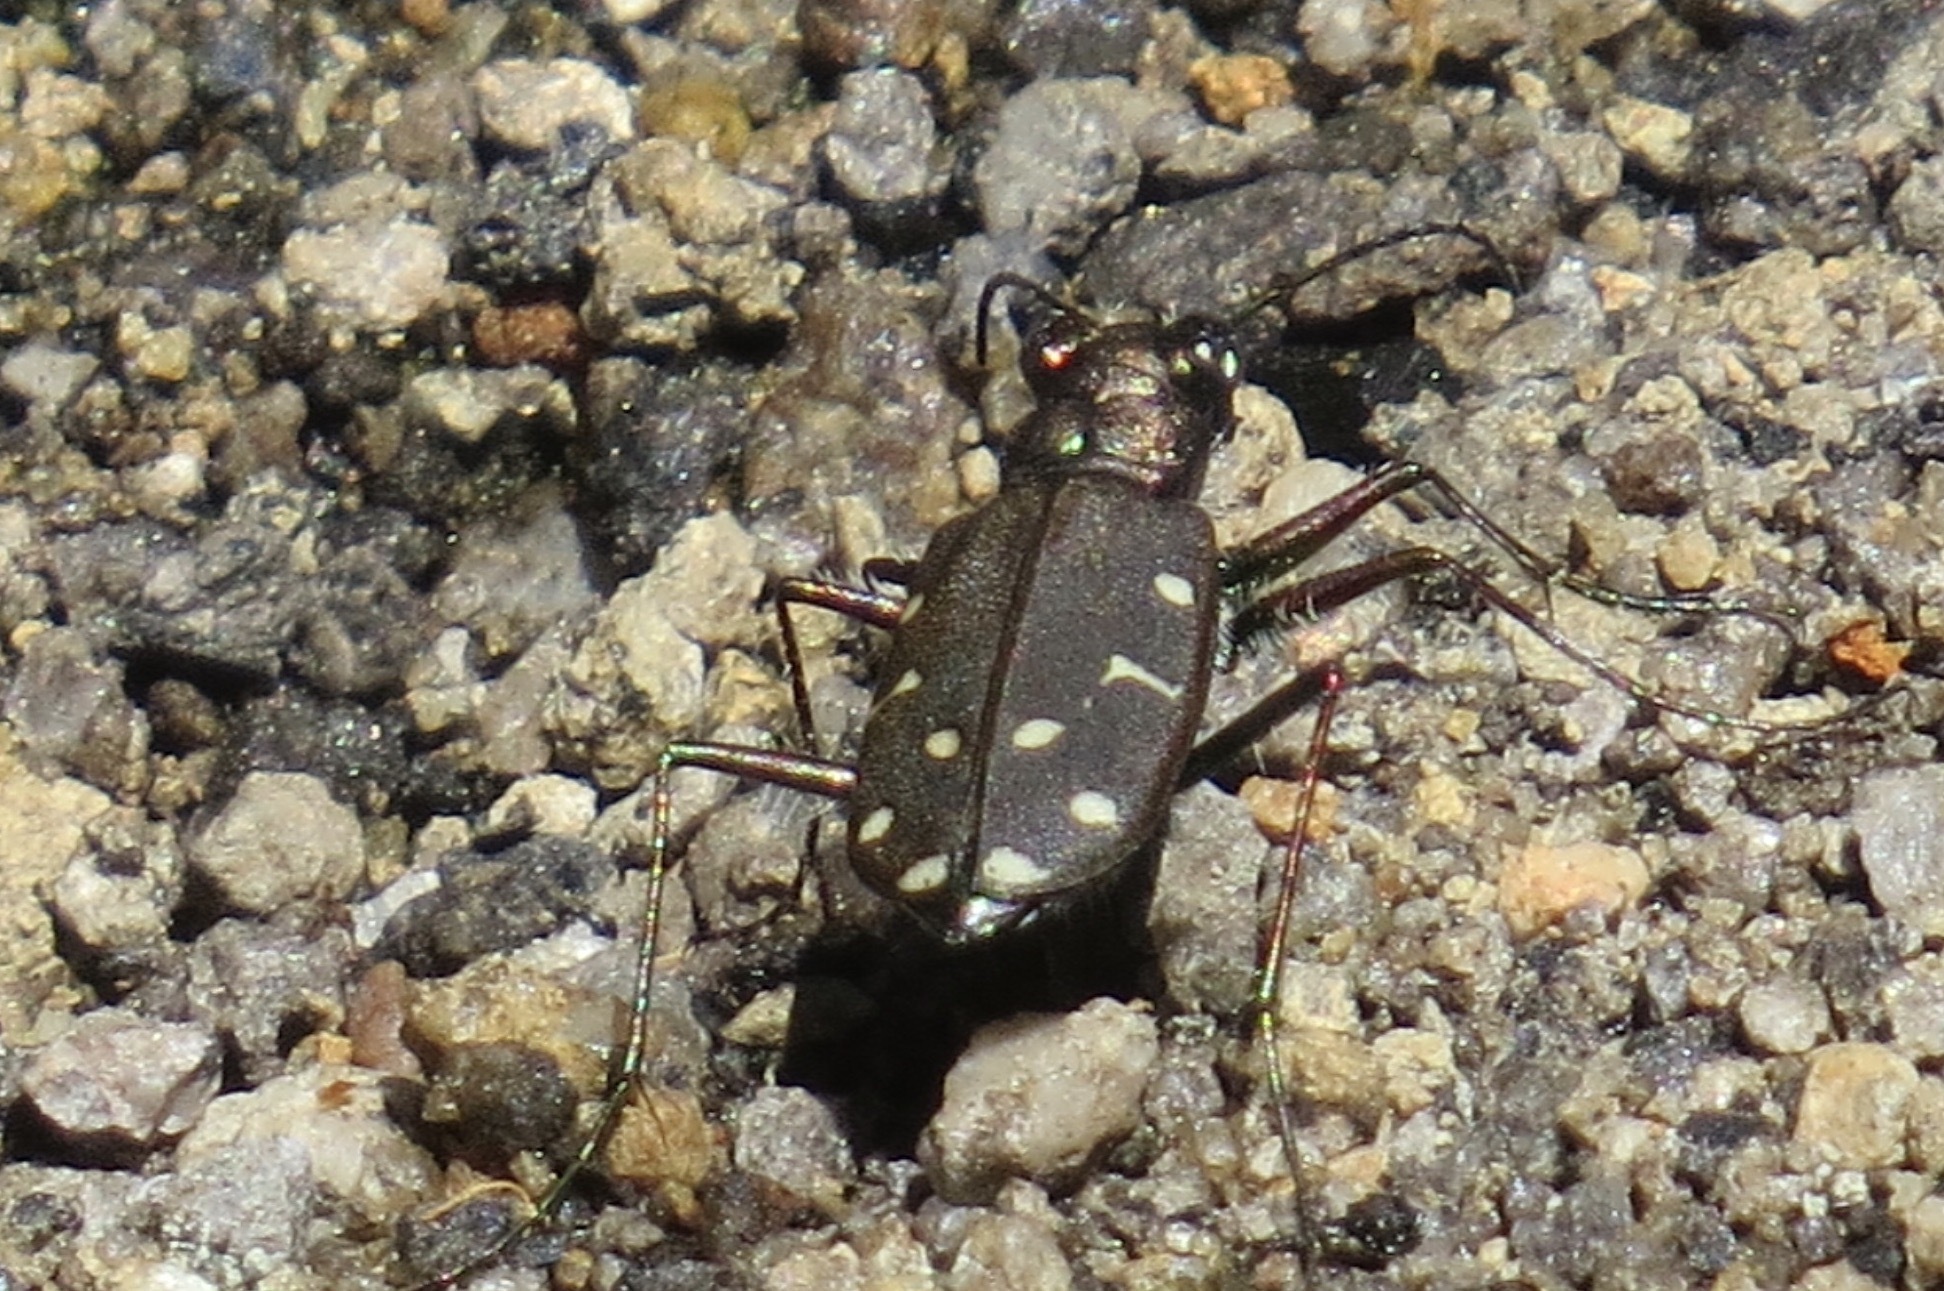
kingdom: Animalia
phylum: Arthropoda
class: Insecta
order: Coleoptera
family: Carabidae
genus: Cicindela
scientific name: Cicindela oregona
